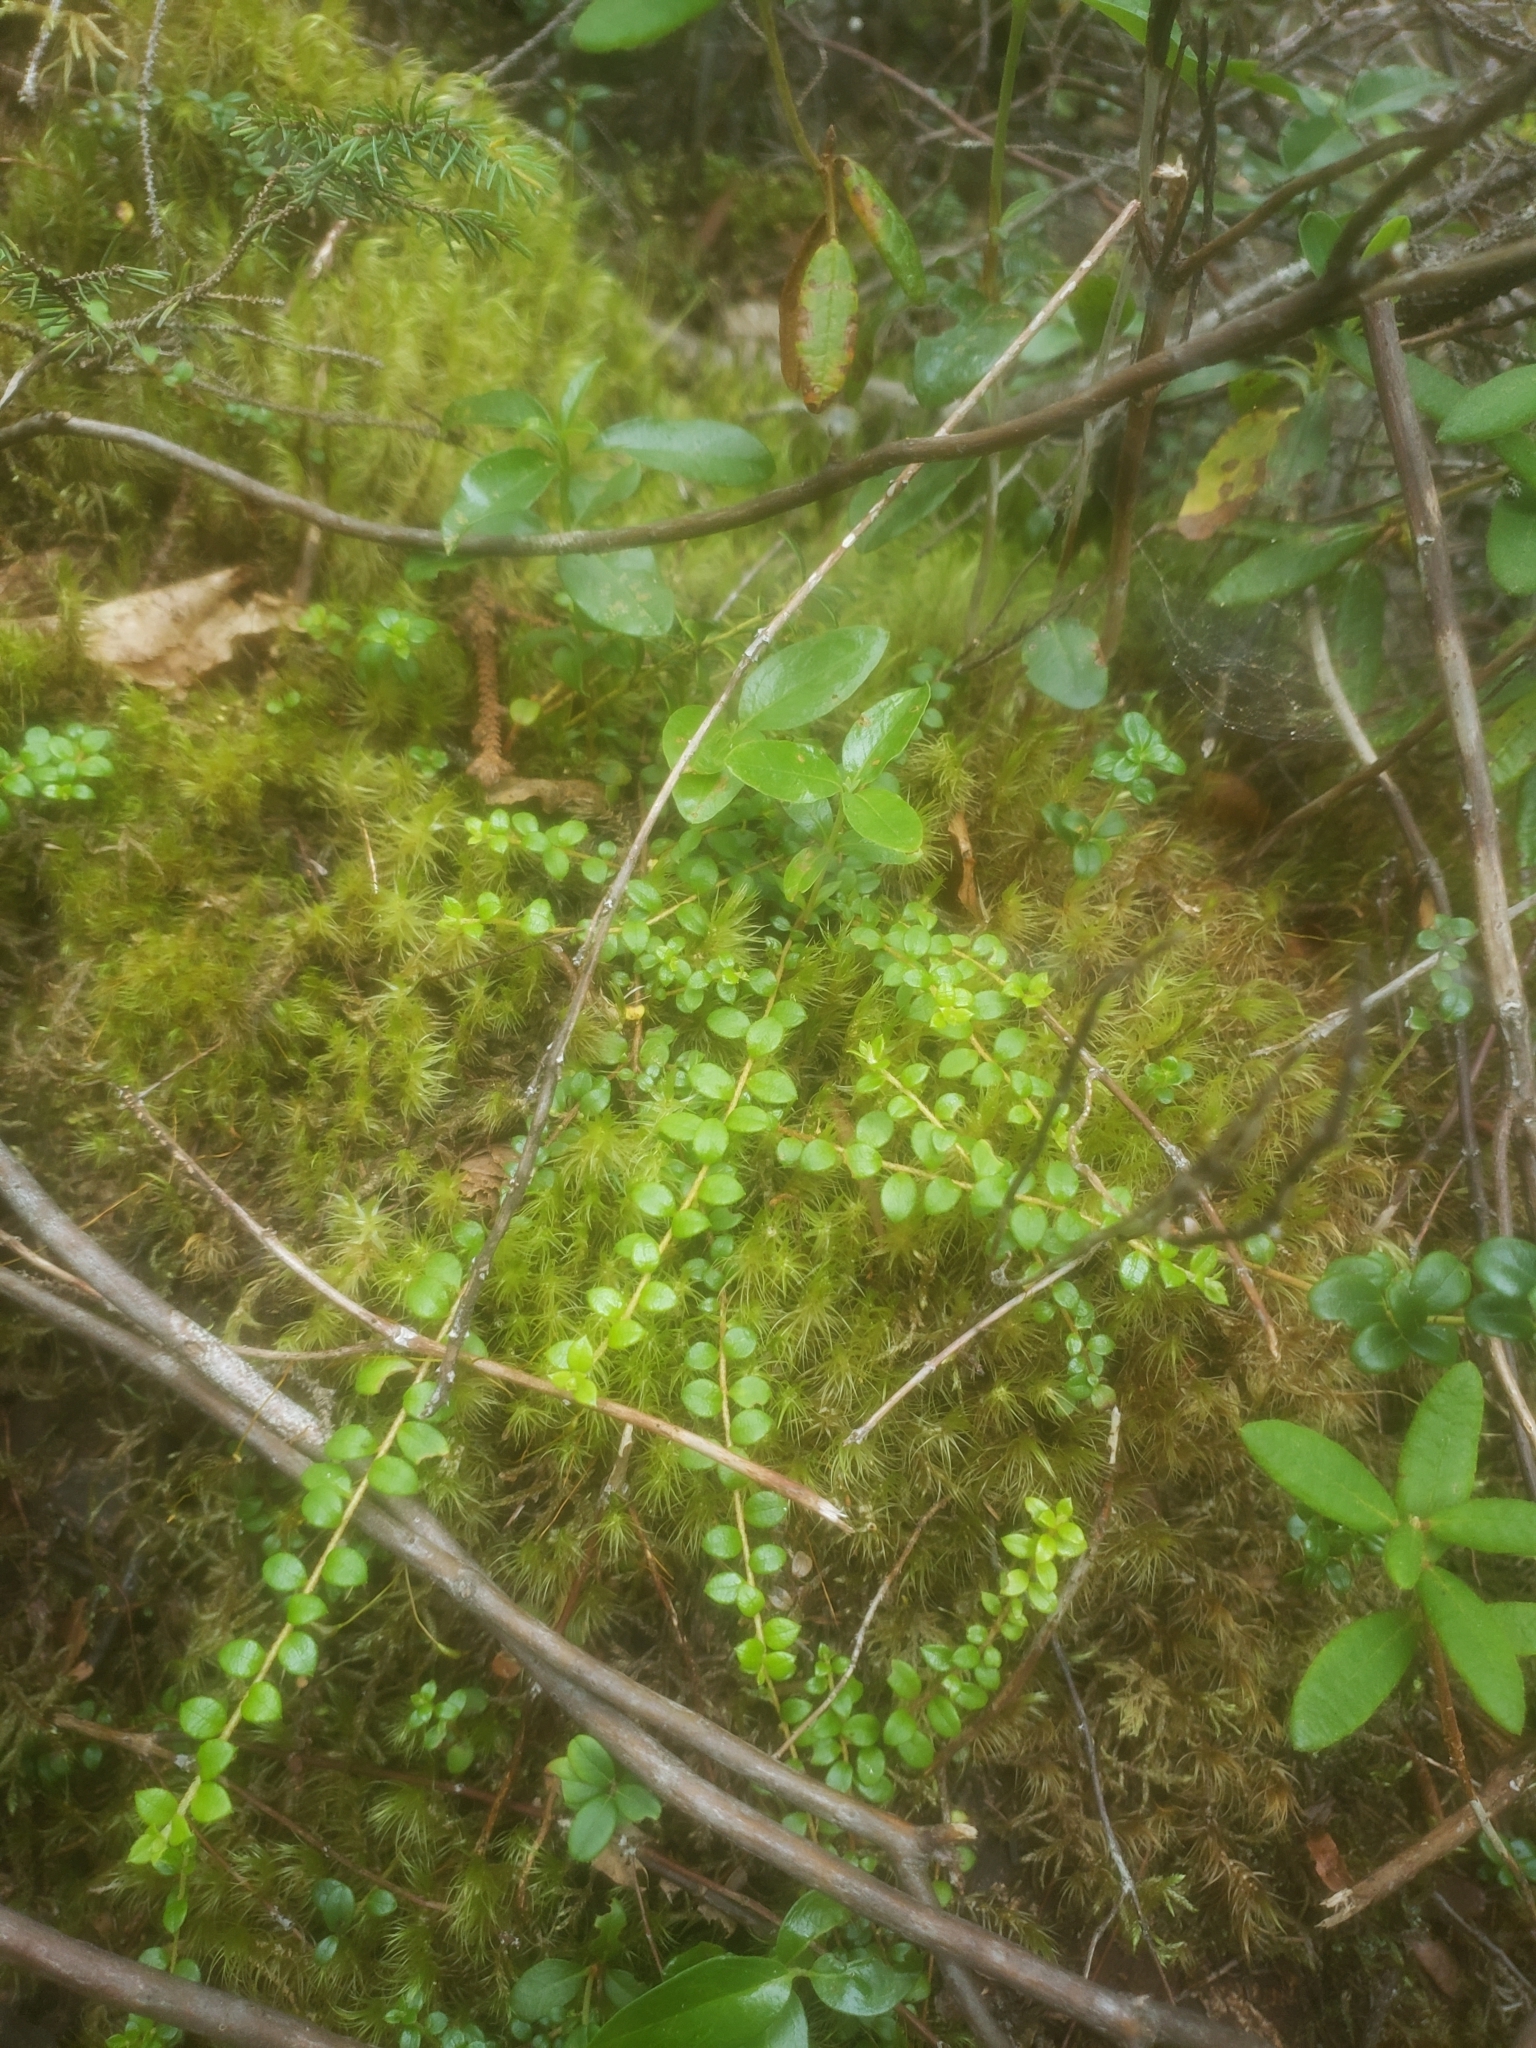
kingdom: Plantae
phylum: Tracheophyta
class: Magnoliopsida
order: Ericales
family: Ericaceae
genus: Gaultheria
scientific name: Gaultheria hispidula
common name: Cancer wintergreen
